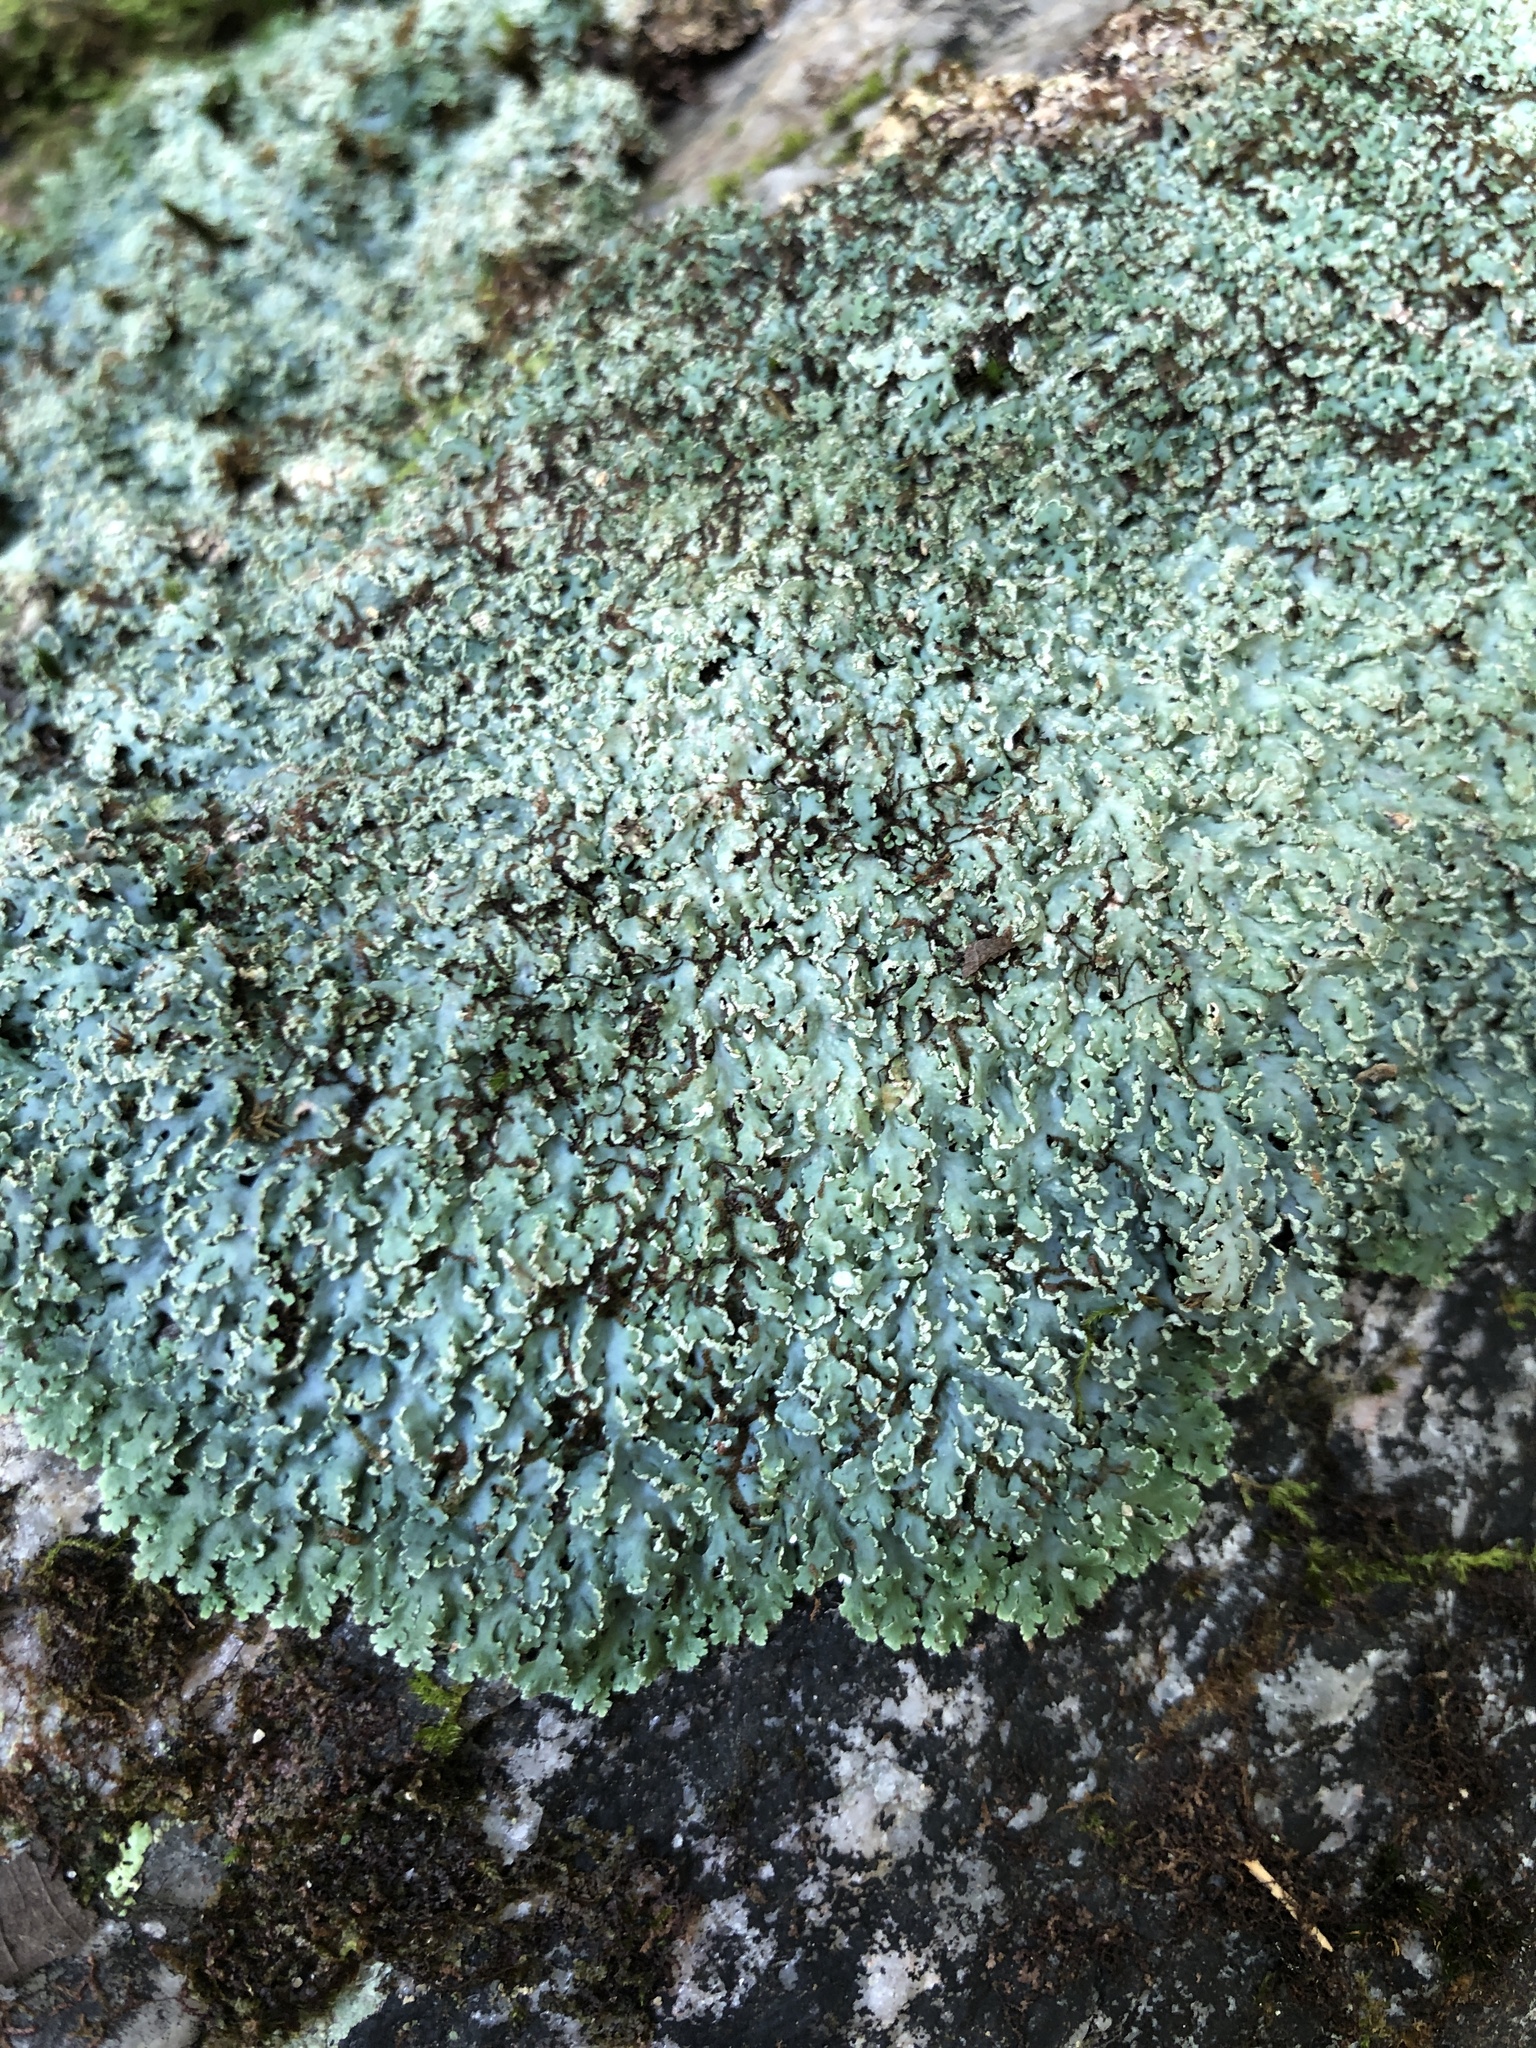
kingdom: Fungi
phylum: Ascomycota
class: Lecanoromycetes
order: Caliciales
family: Physciaceae
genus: Polyblastidium
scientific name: Polyblastidium albicans
